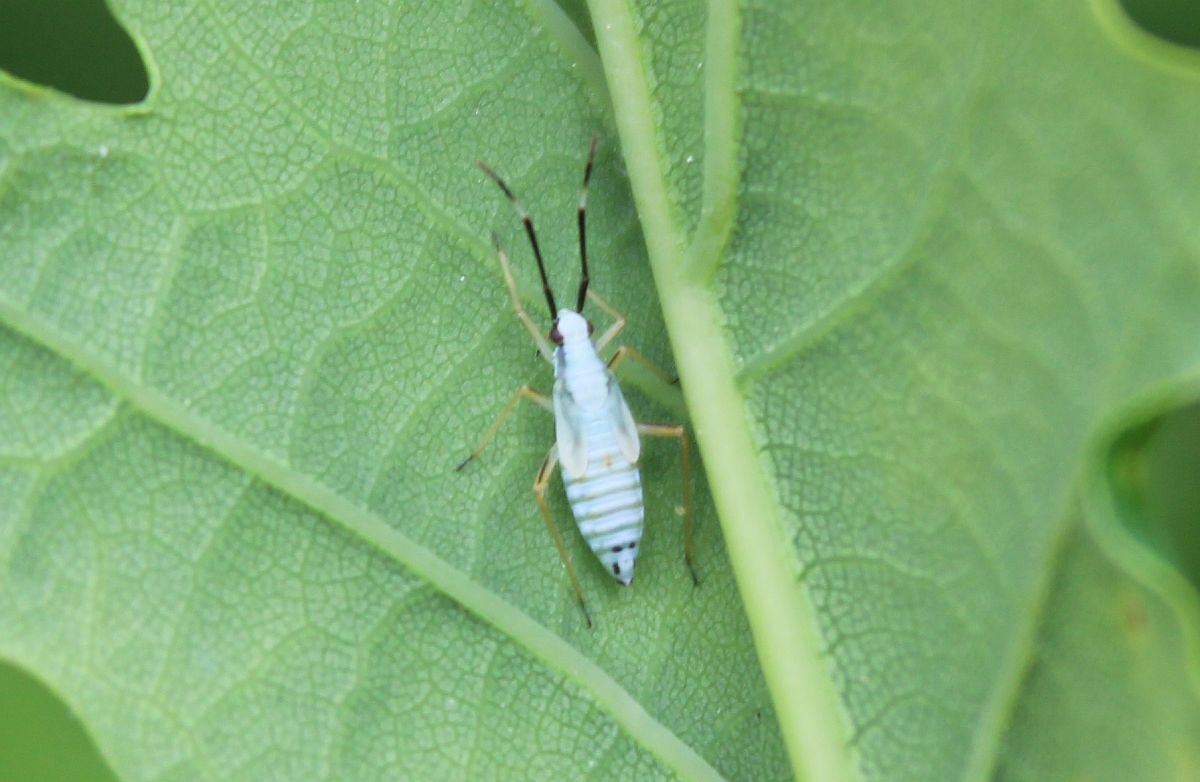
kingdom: Animalia
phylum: Arthropoda
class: Insecta
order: Hemiptera
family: Miridae
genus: Cyllecoris
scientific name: Cyllecoris histrionius
